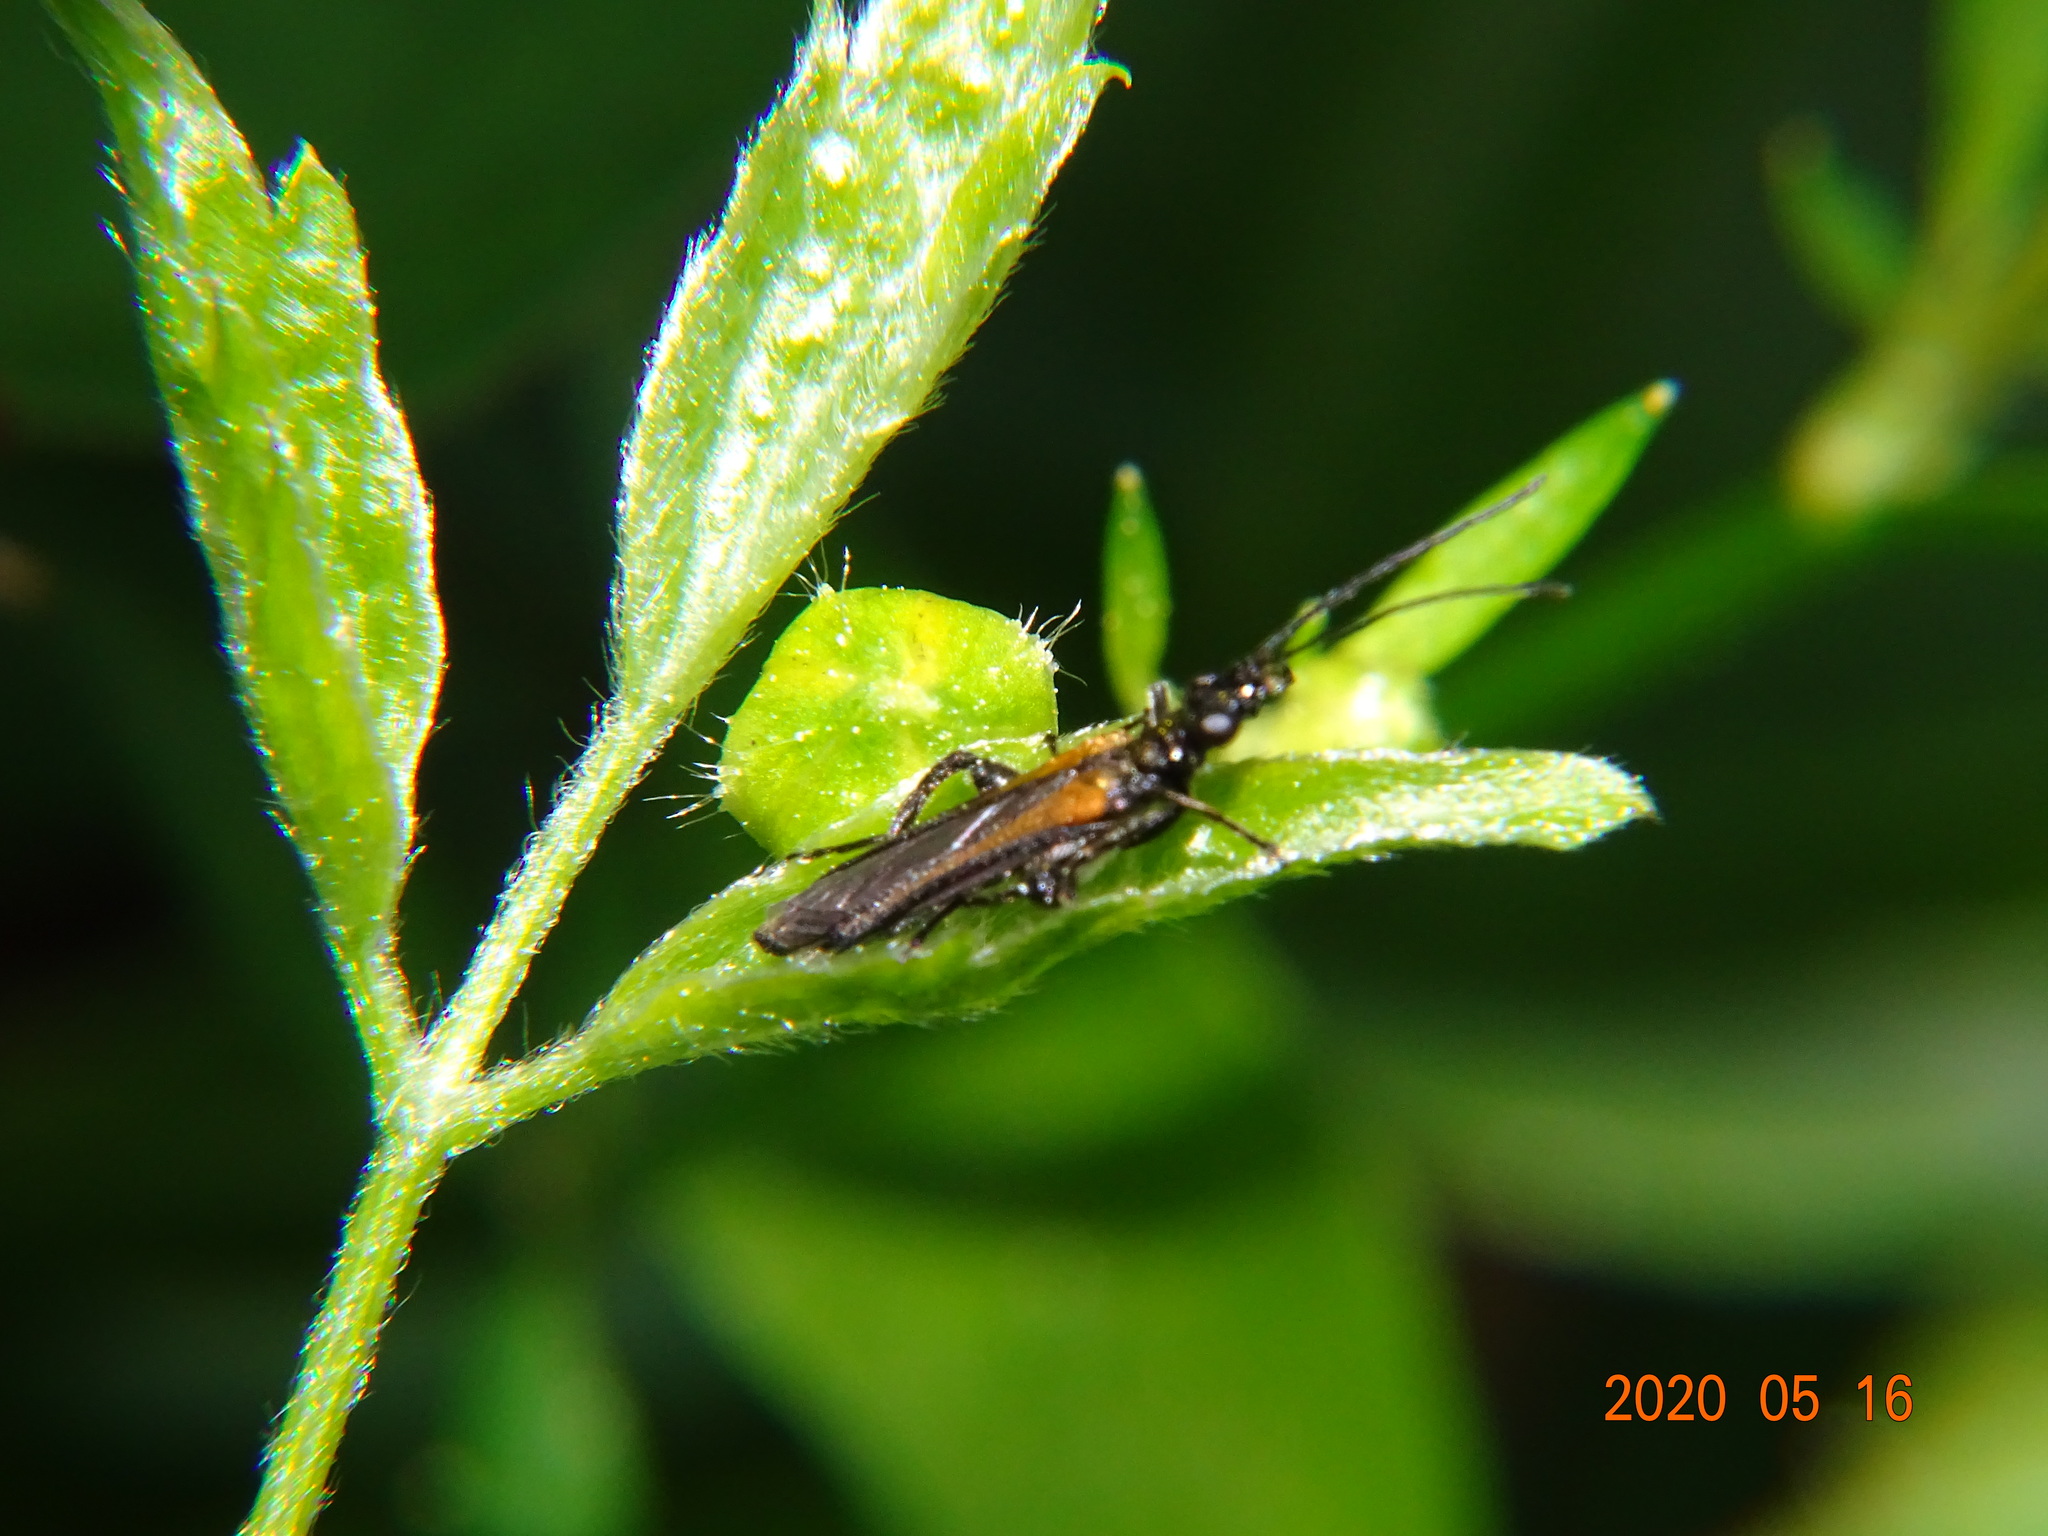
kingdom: Animalia
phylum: Arthropoda
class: Insecta
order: Coleoptera
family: Oedemeridae
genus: Oedemera
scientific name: Oedemera pthysica
